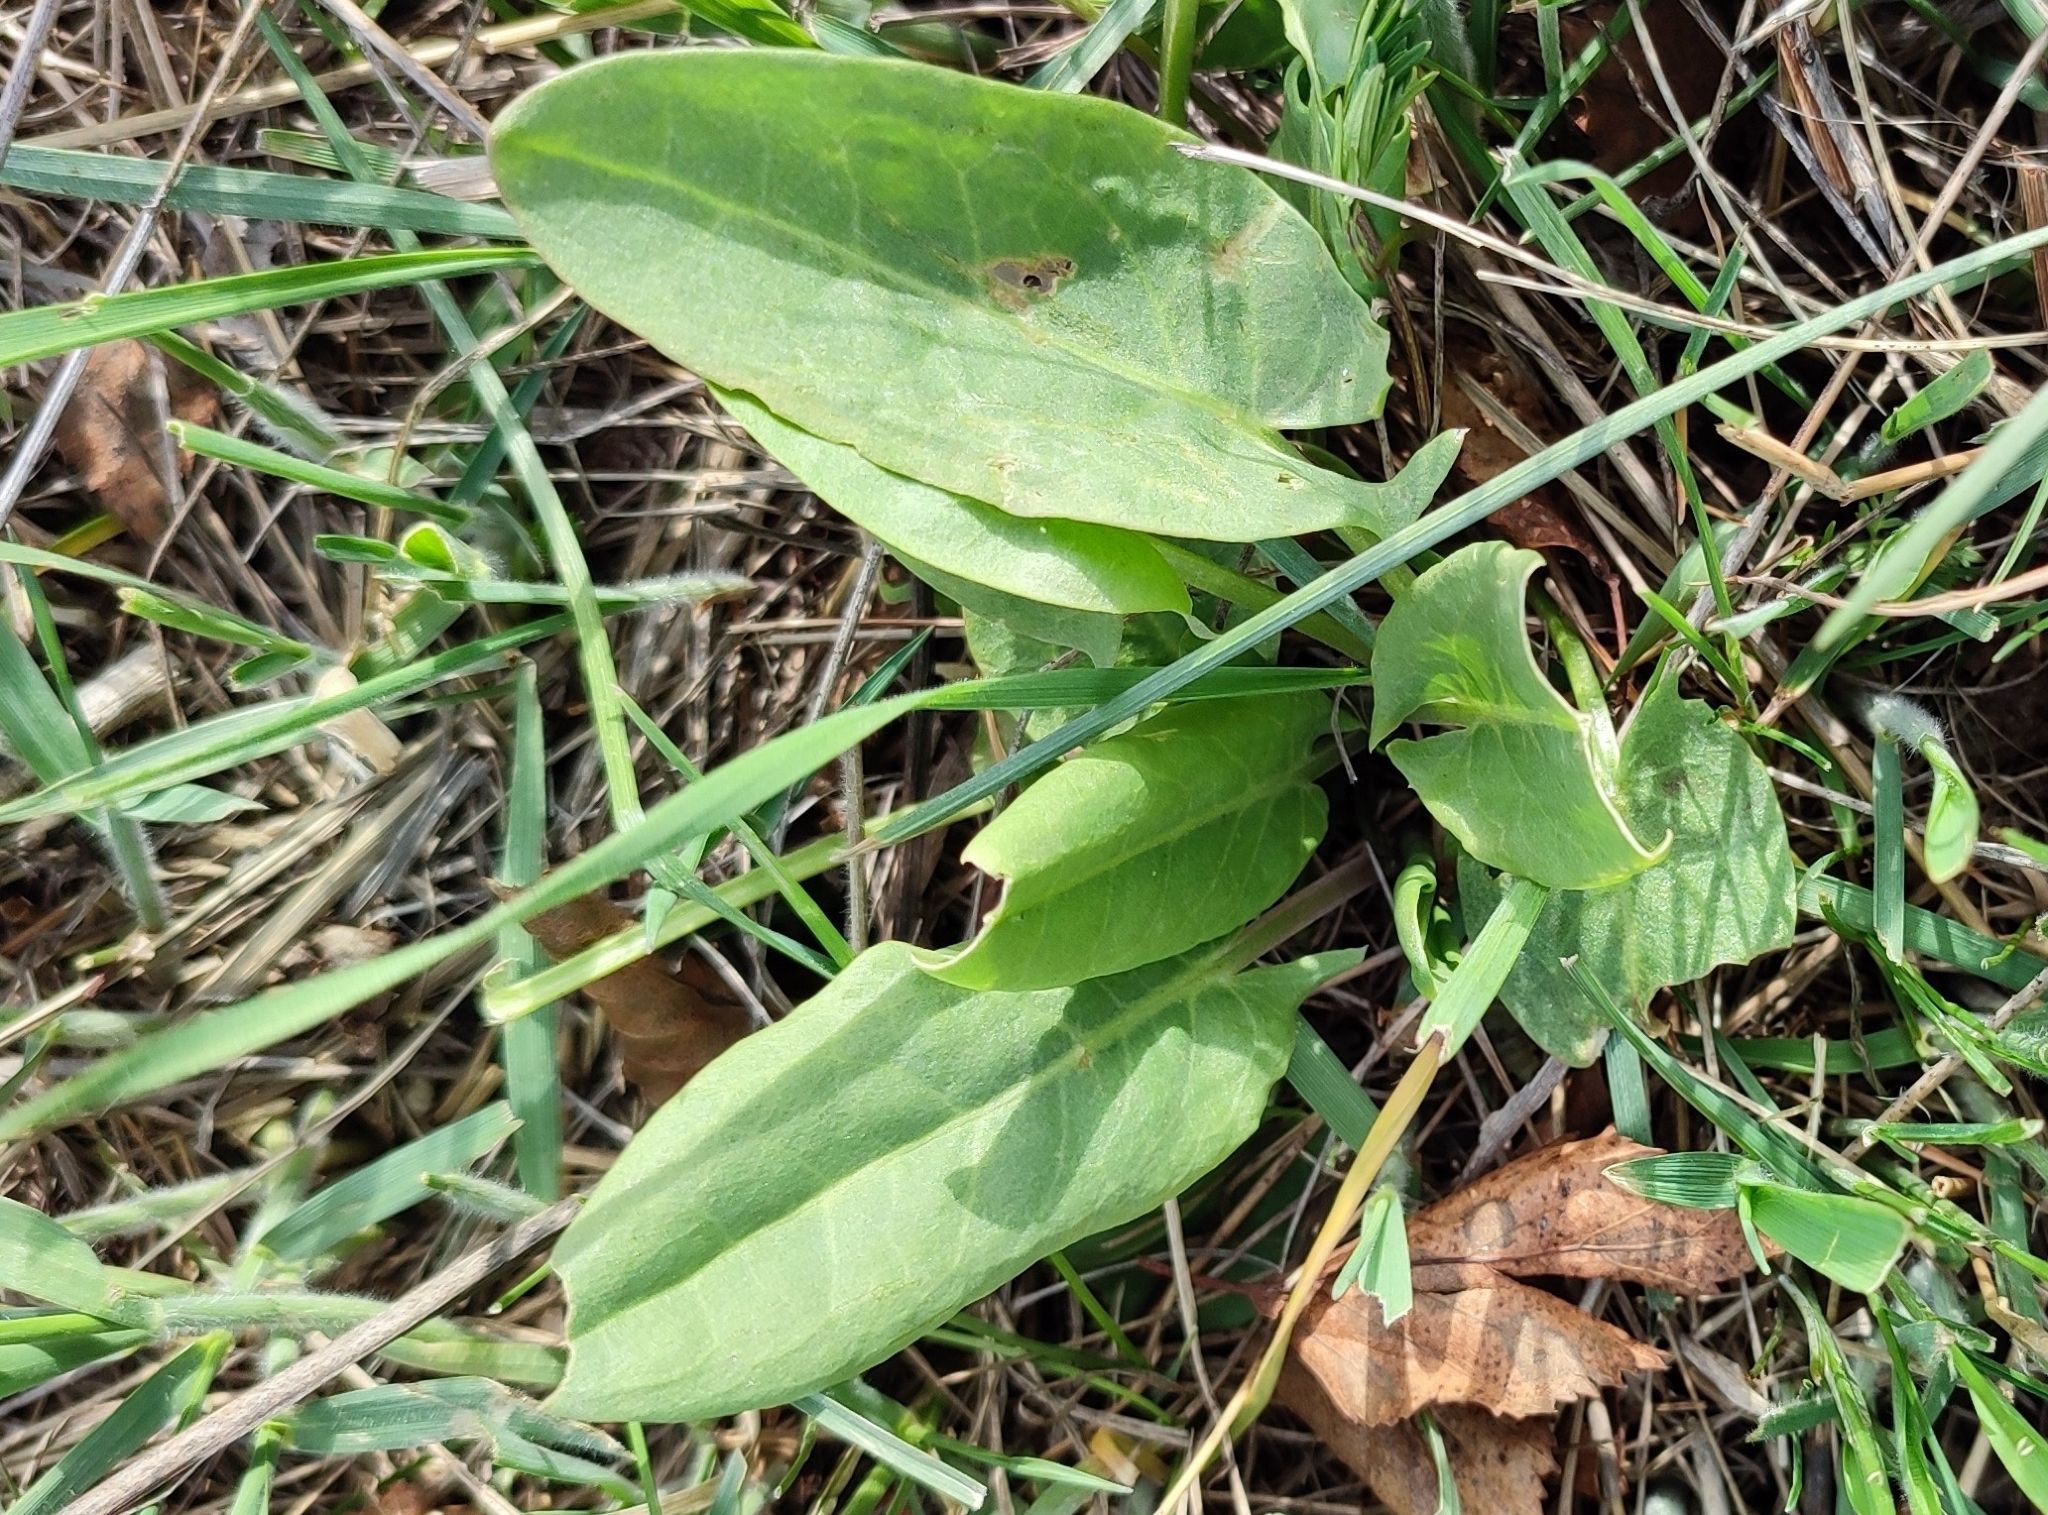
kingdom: Plantae
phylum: Tracheophyta
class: Magnoliopsida
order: Caryophyllales
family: Polygonaceae
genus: Rumex
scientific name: Rumex thyrsiflorus
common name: Garden sorrel
